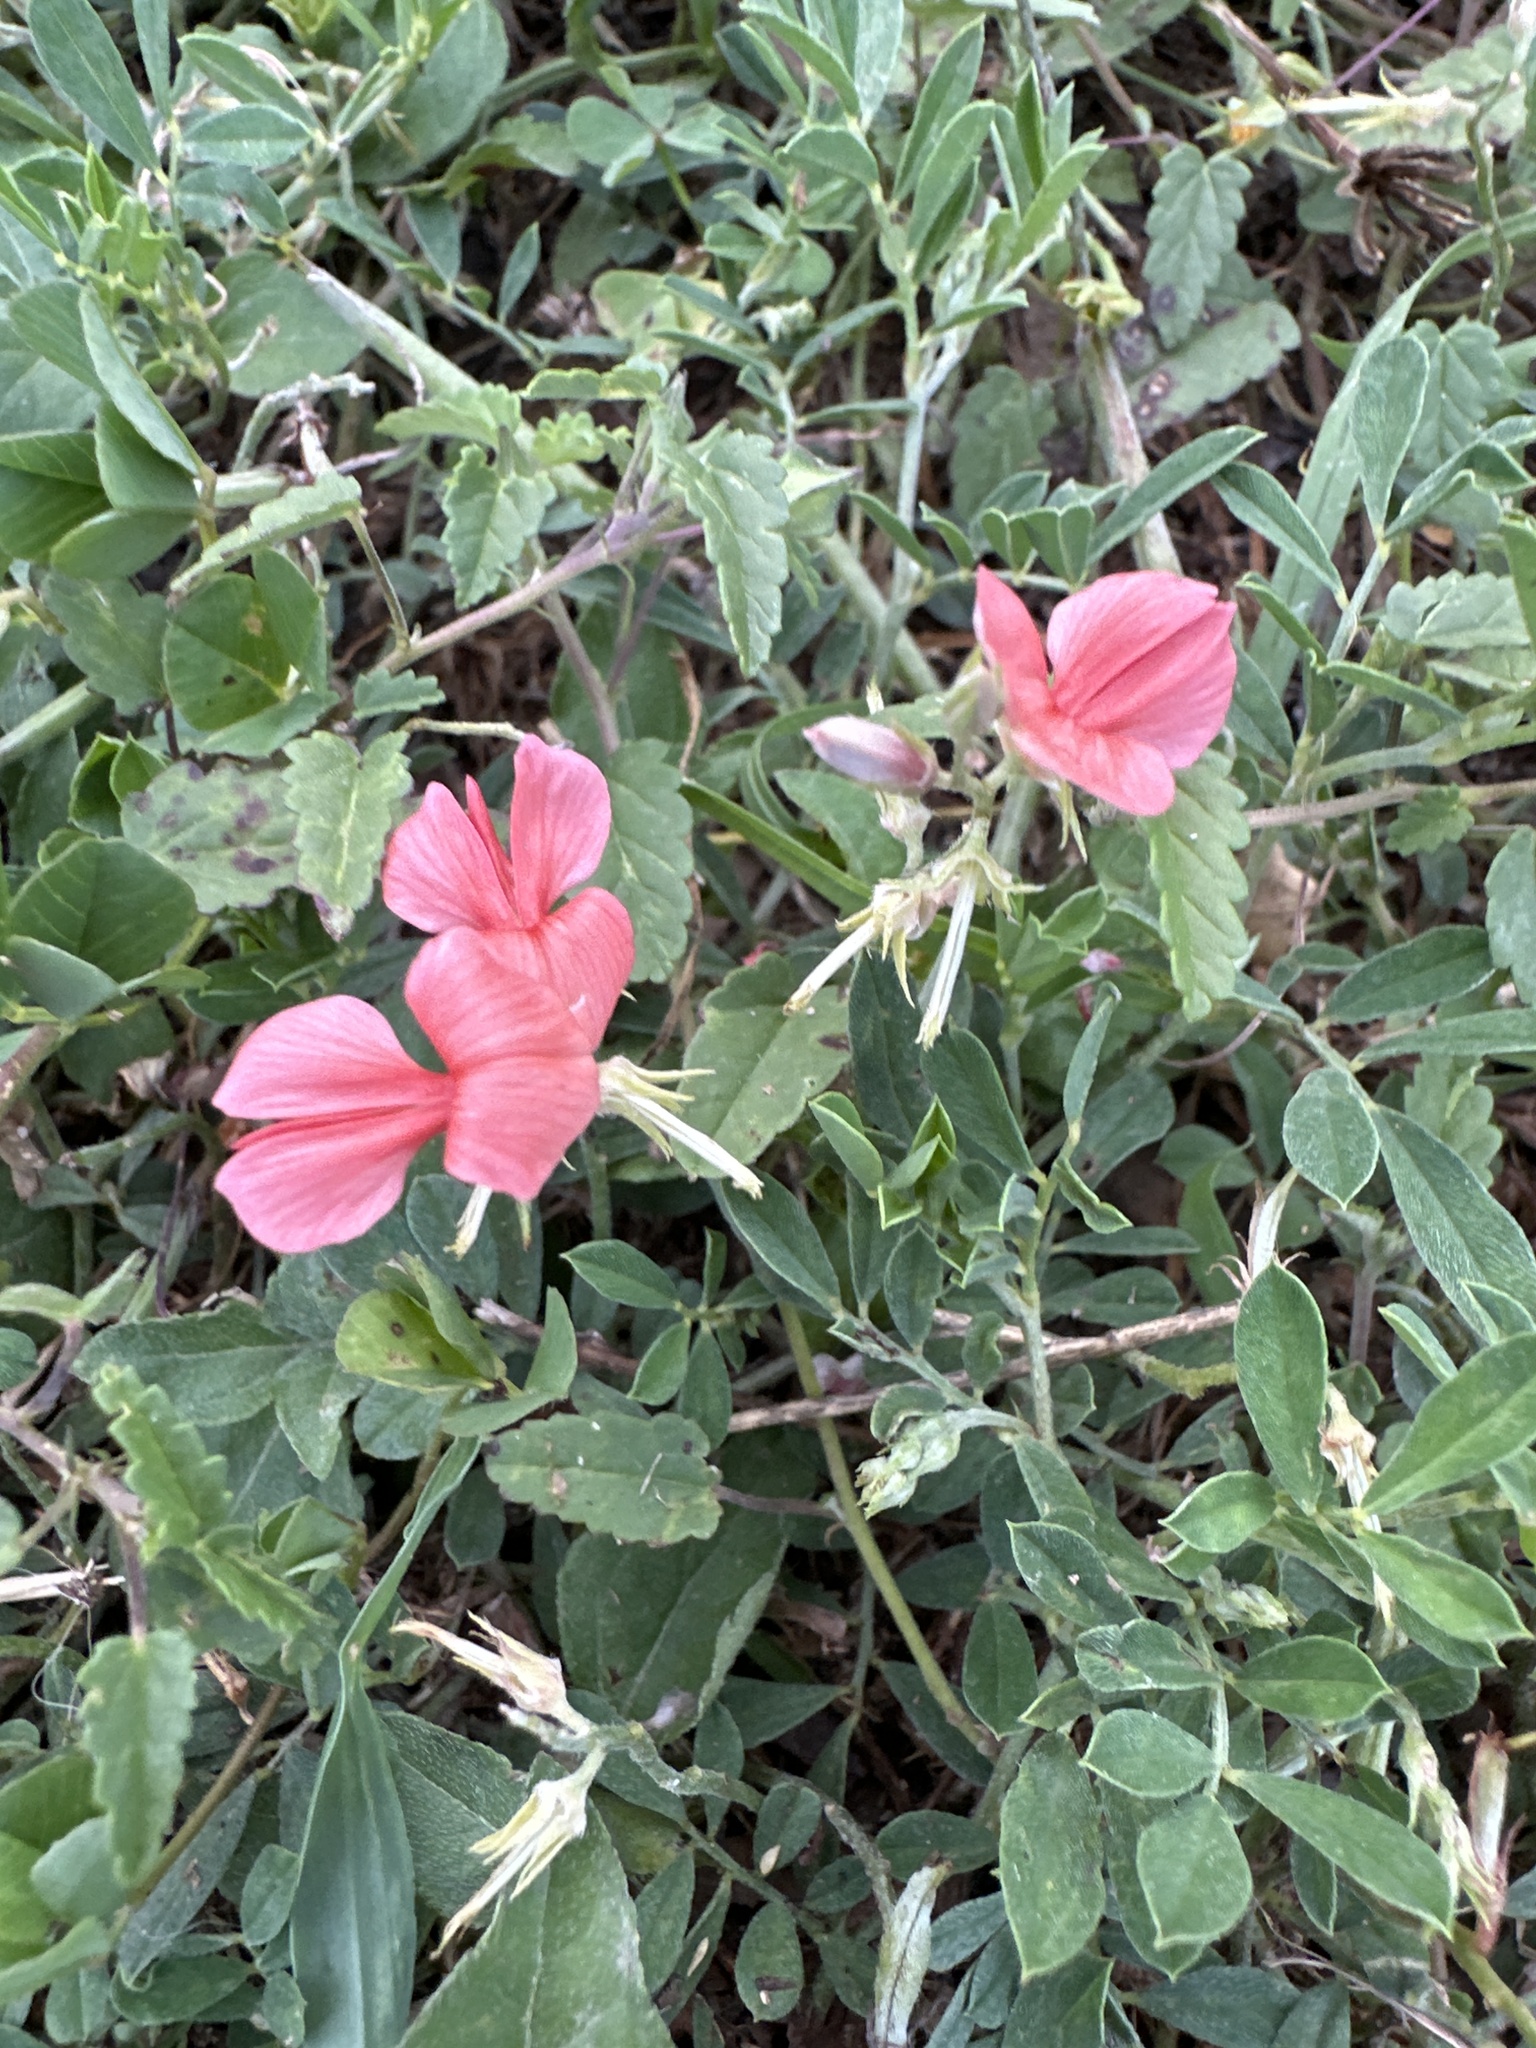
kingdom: Plantae
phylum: Tracheophyta
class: Magnoliopsida
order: Fabales
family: Fabaceae
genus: Indigofera
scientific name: Indigofera miniata
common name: Coast indigo
